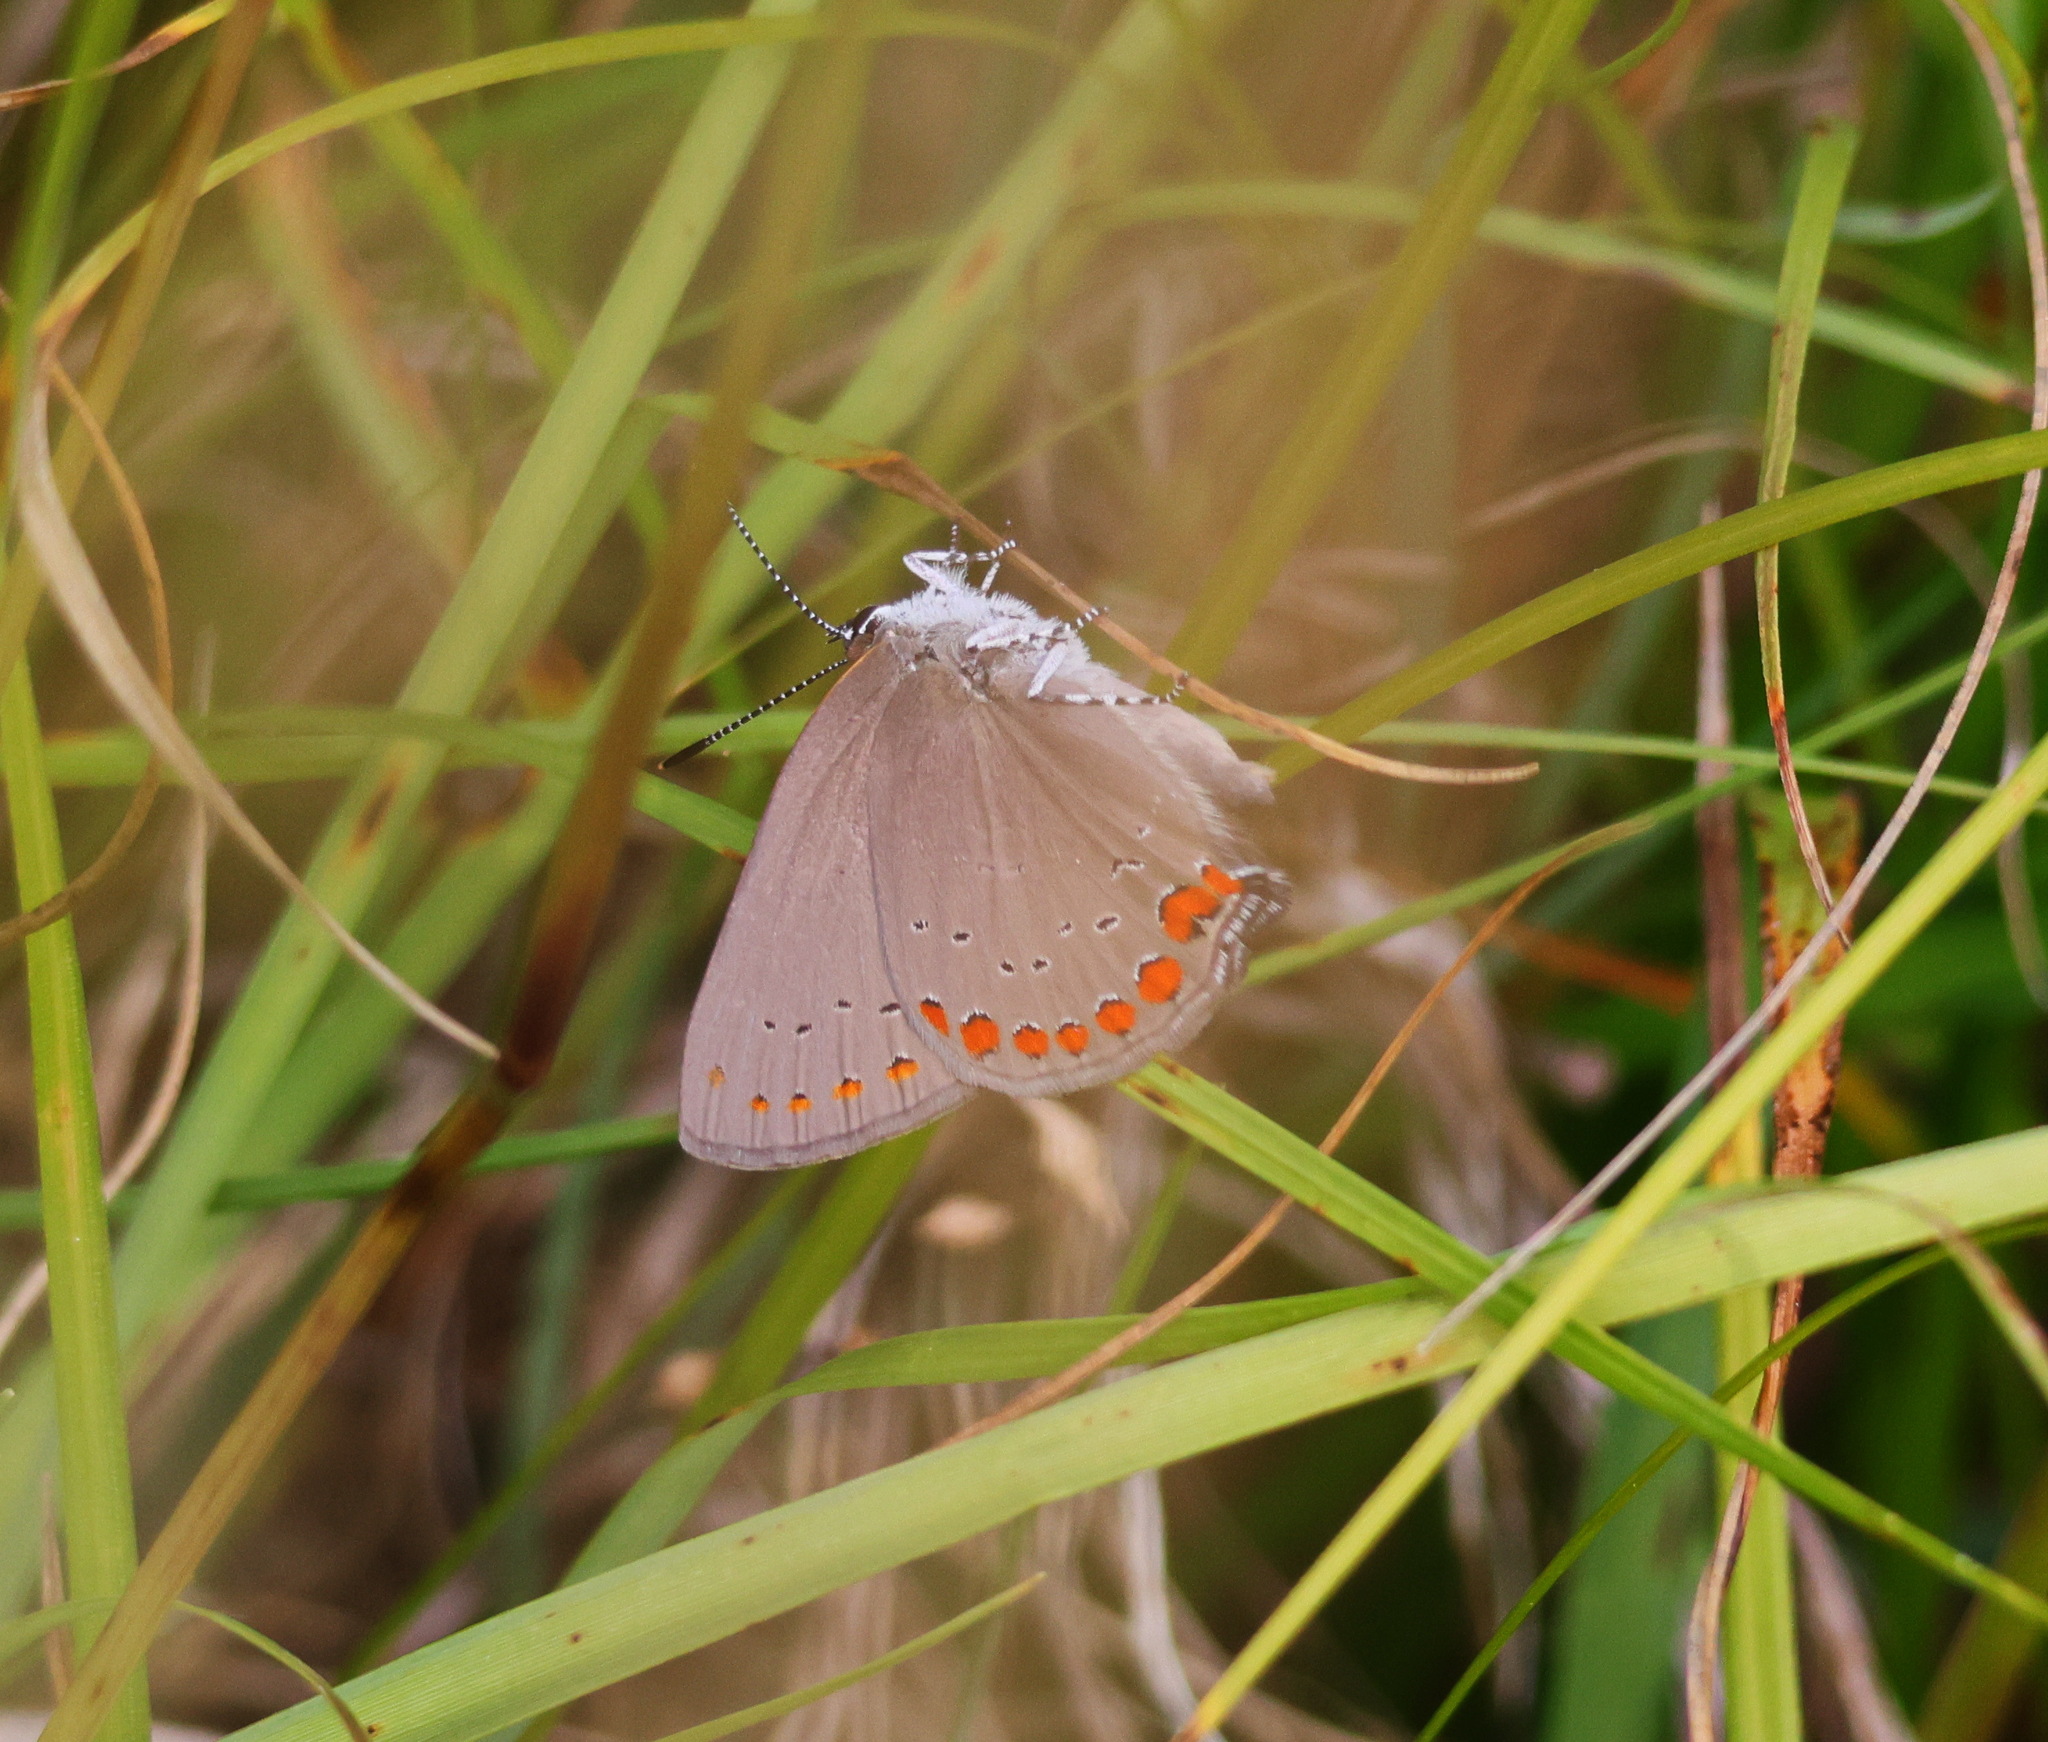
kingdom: Animalia
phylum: Arthropoda
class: Insecta
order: Lepidoptera
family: Lycaenidae
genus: Harkenclenus
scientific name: Harkenclenus titus
